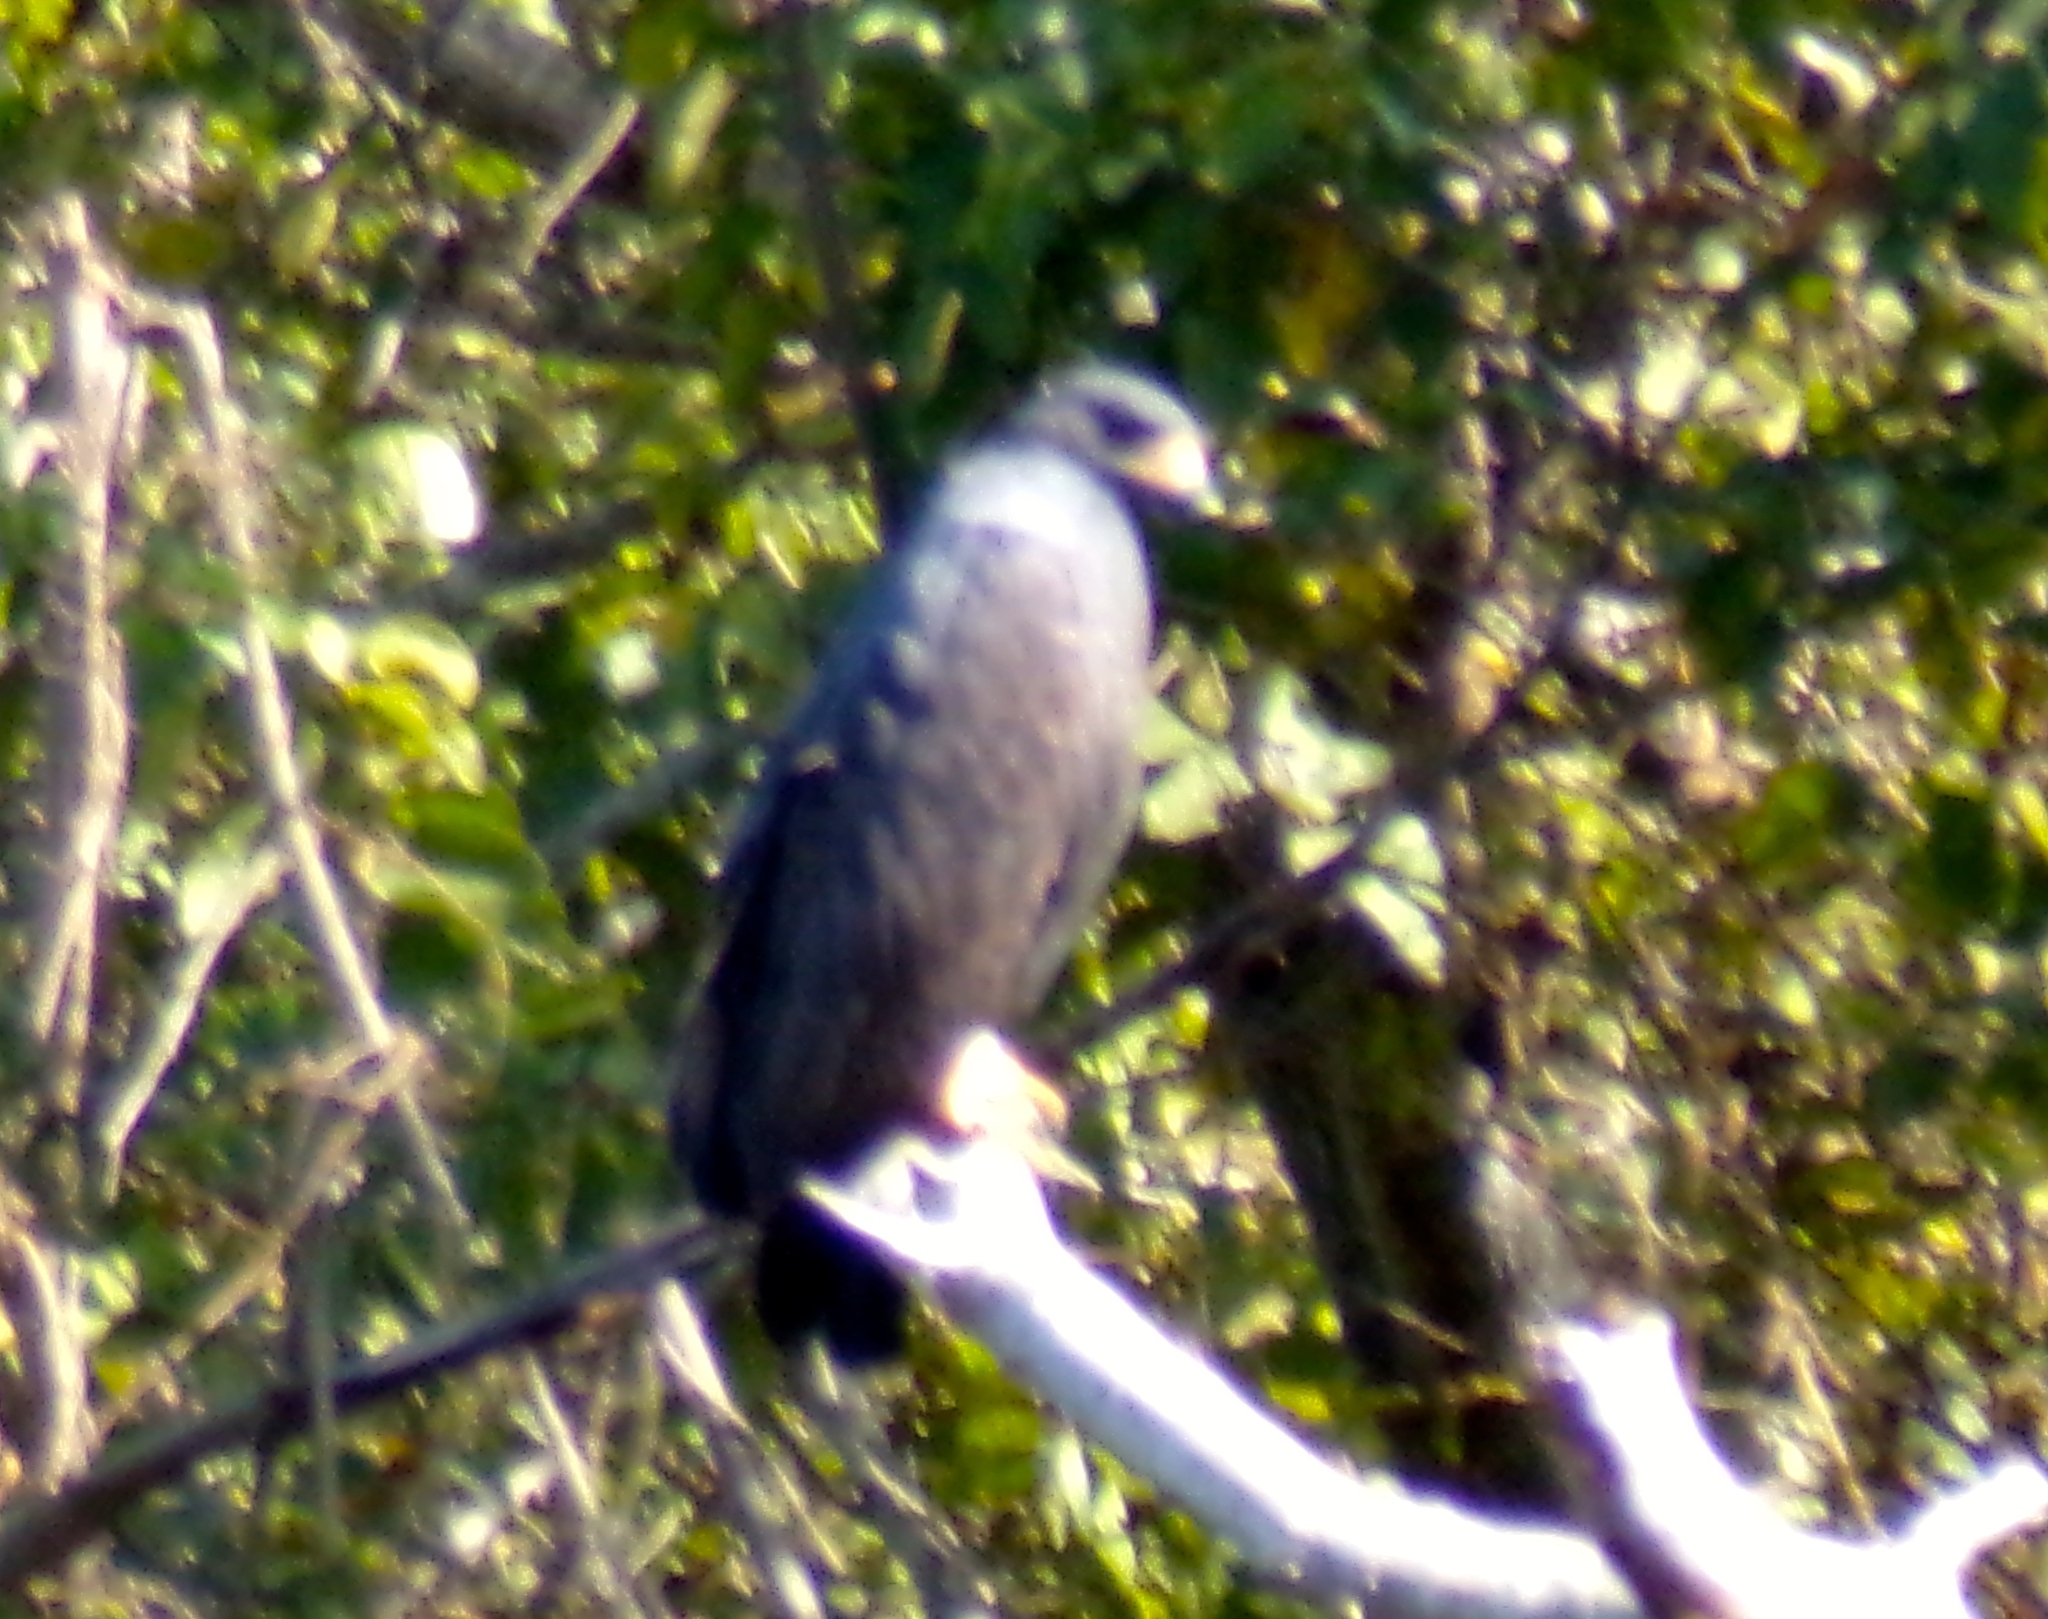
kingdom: Animalia
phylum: Chordata
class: Aves
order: Accipitriformes
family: Accipitridae
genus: Buteogallus
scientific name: Buteogallus anthracinus
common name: Common black hawk
